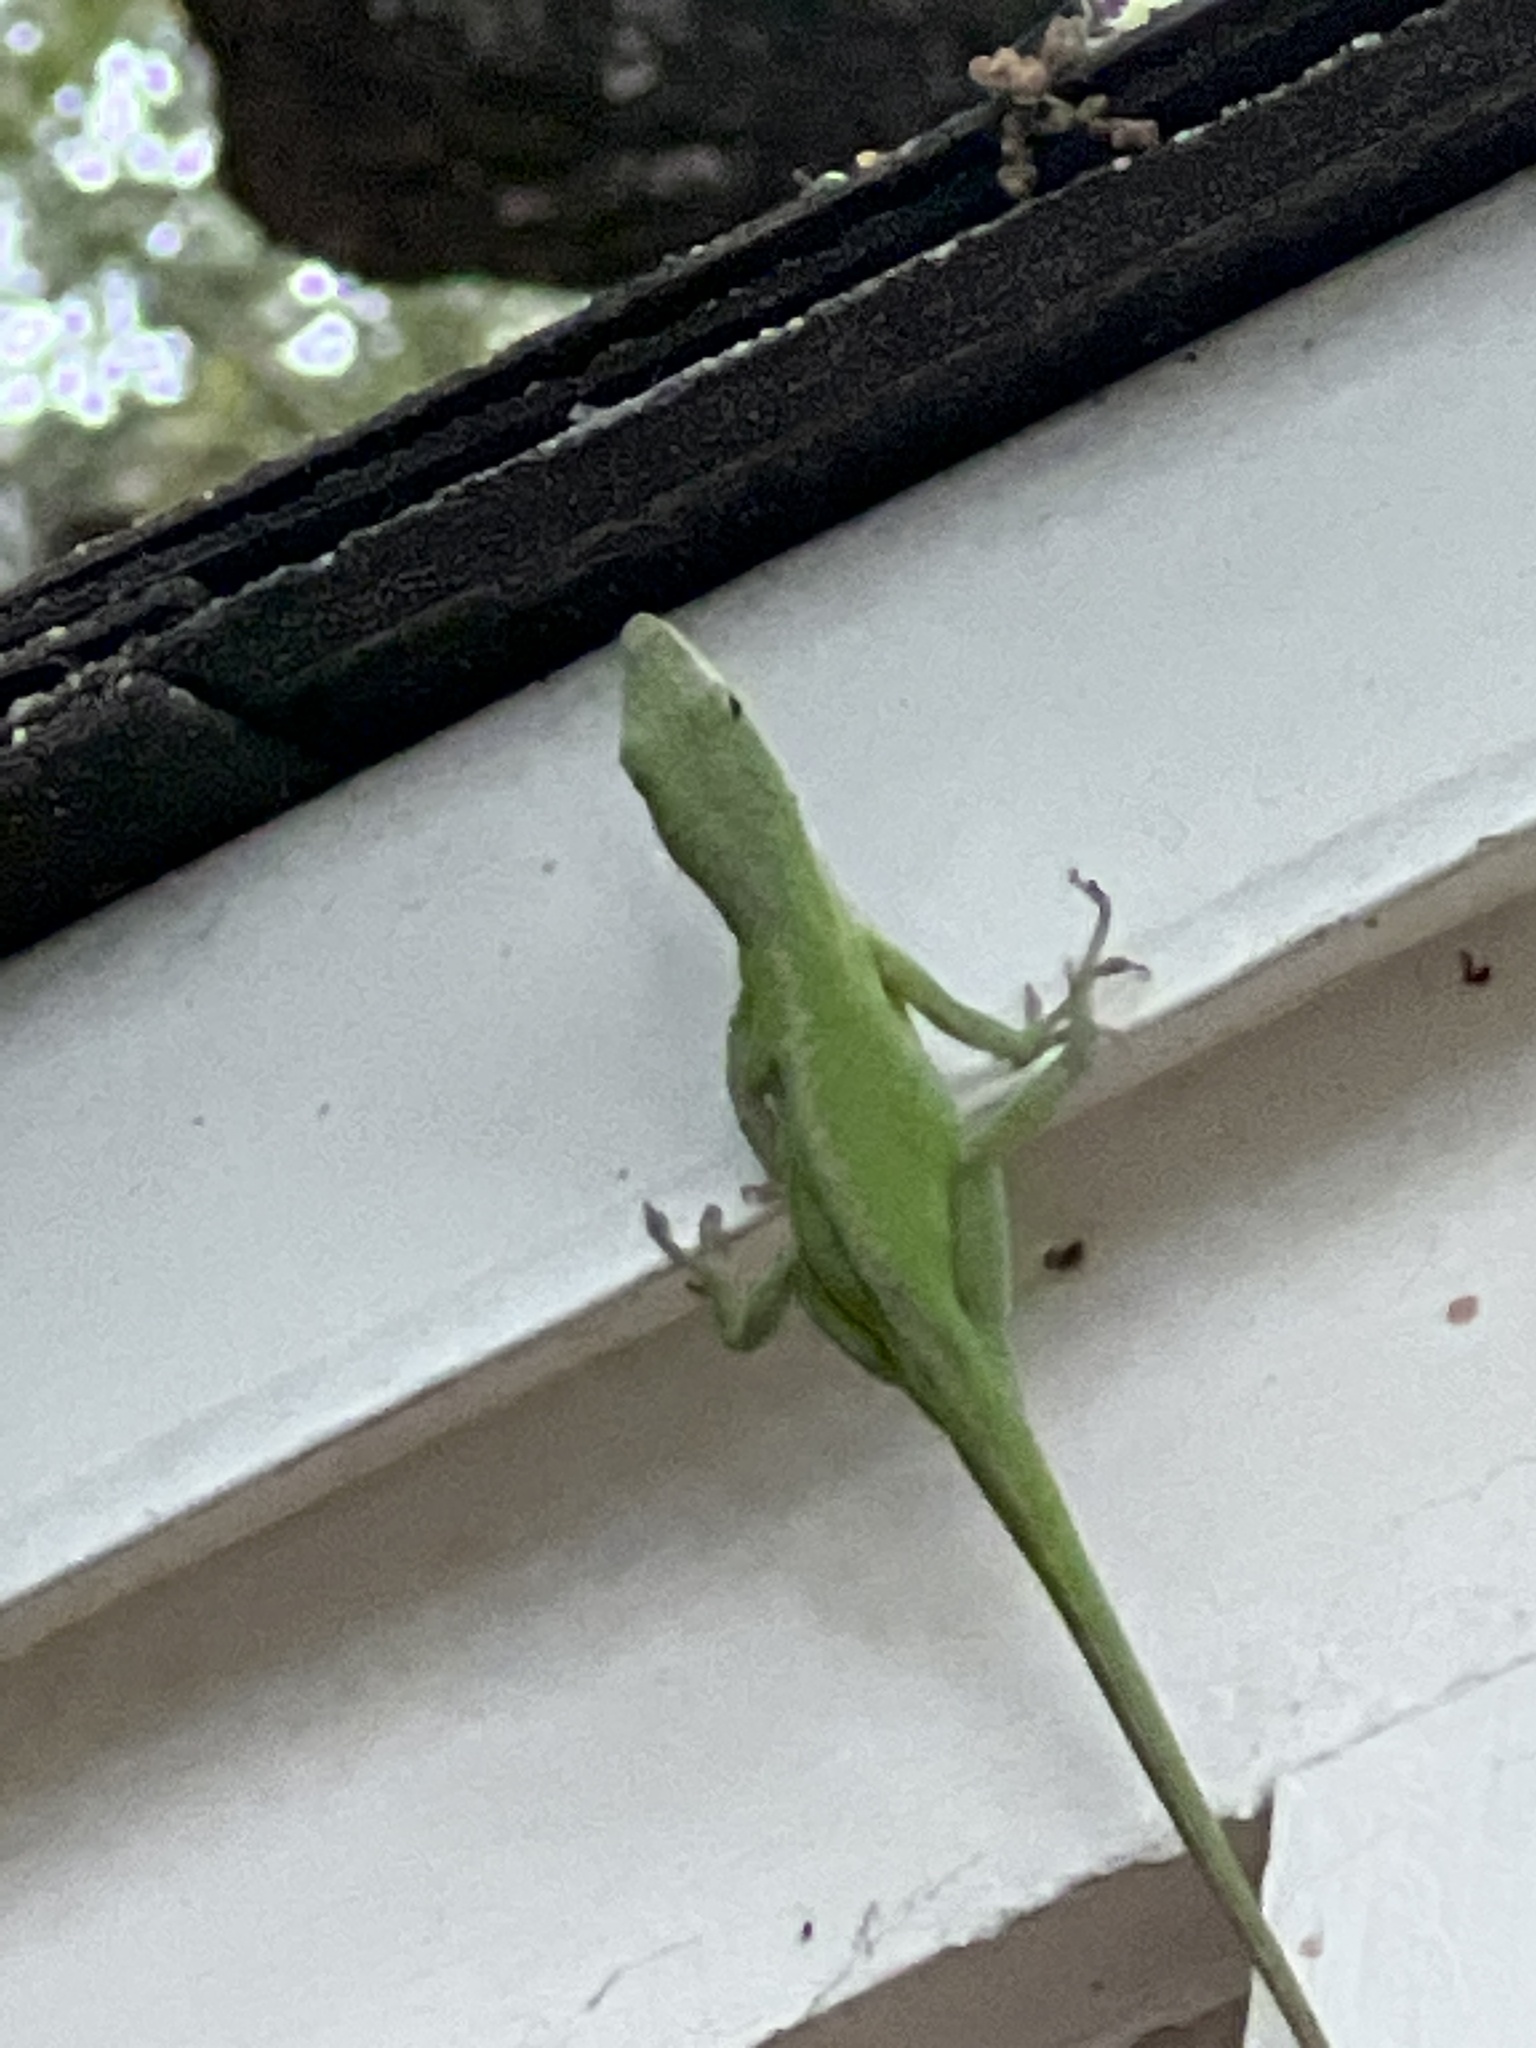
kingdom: Animalia
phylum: Chordata
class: Squamata
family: Dactyloidae
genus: Anolis
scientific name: Anolis carolinensis
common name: Green anole
